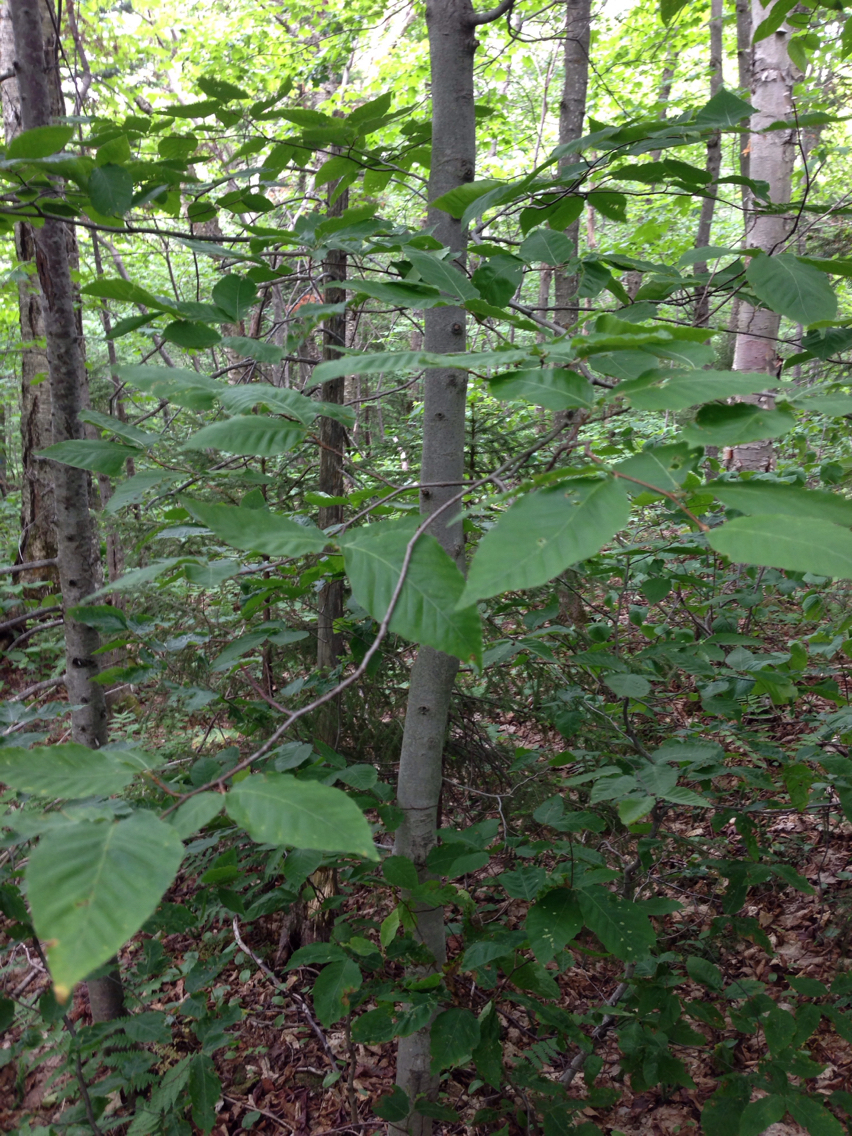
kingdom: Plantae
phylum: Tracheophyta
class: Magnoliopsida
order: Fagales
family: Fagaceae
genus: Fagus
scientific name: Fagus grandifolia
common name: American beech
